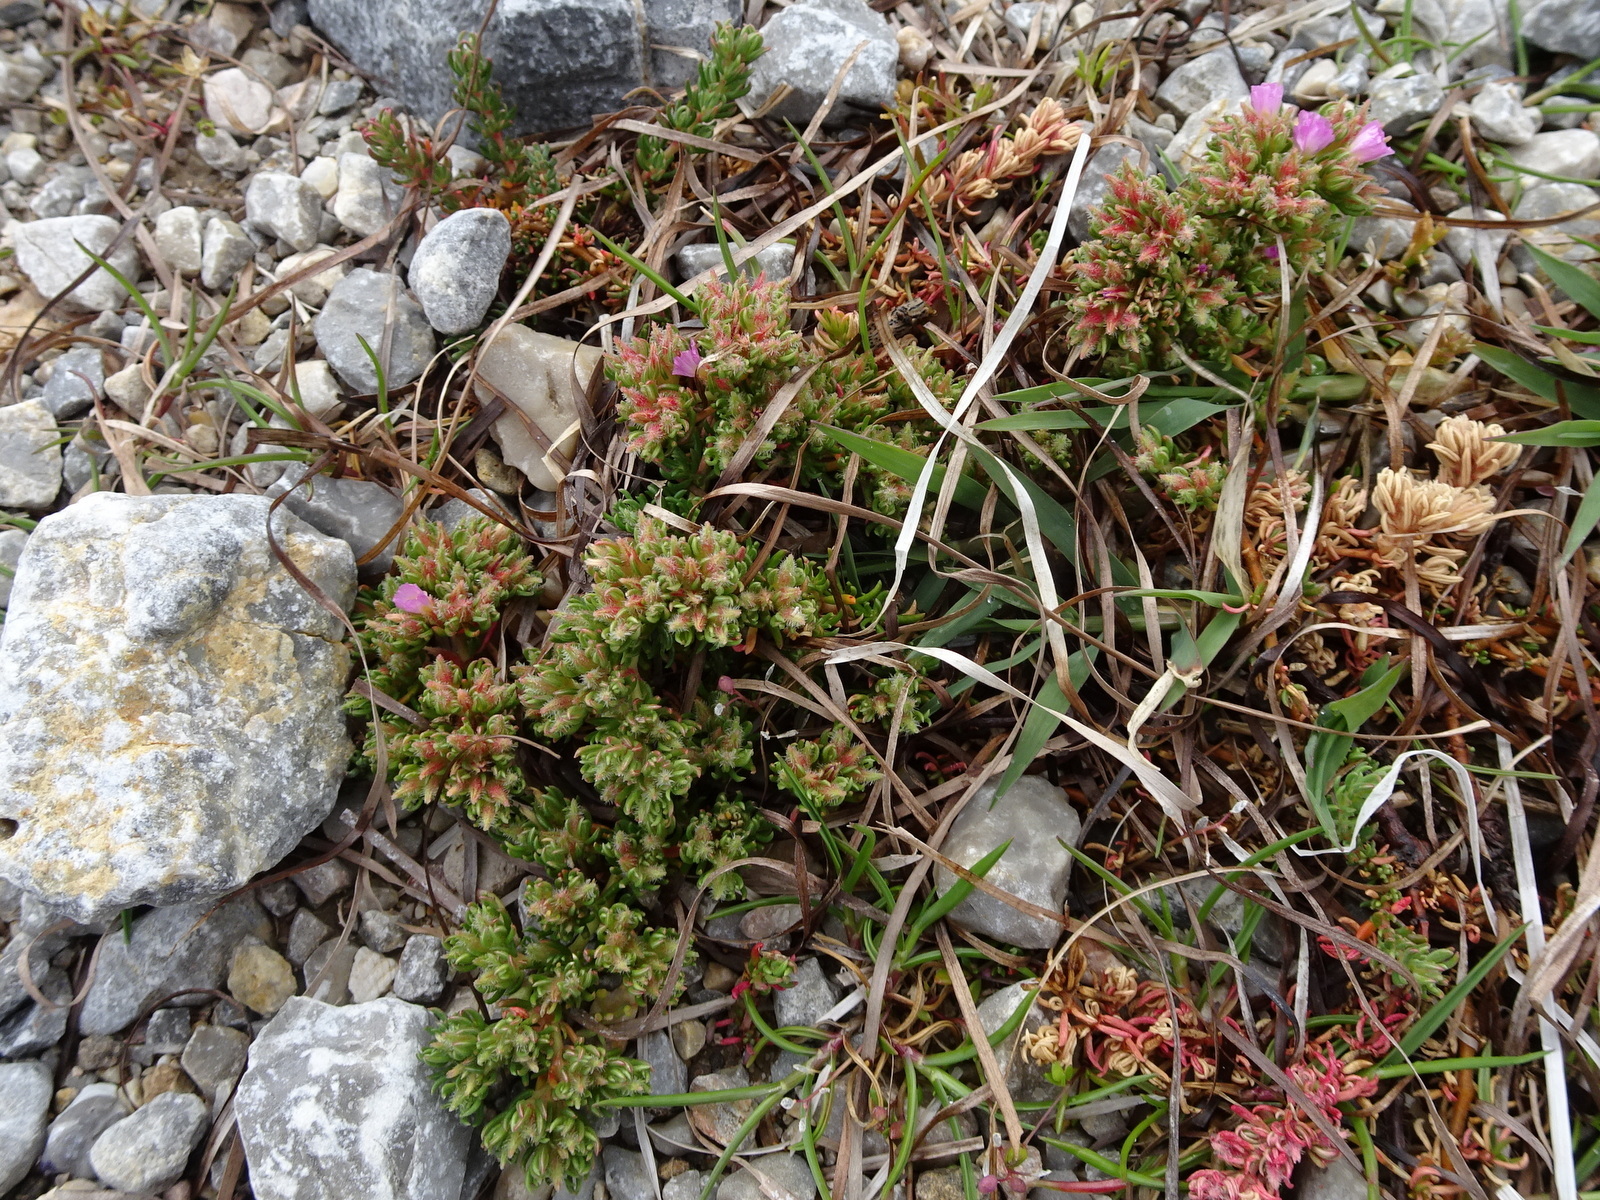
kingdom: Plantae
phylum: Tracheophyta
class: Magnoliopsida
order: Caryophyllales
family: Frankeniaceae
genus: Frankenia
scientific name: Frankenia hirsuta
